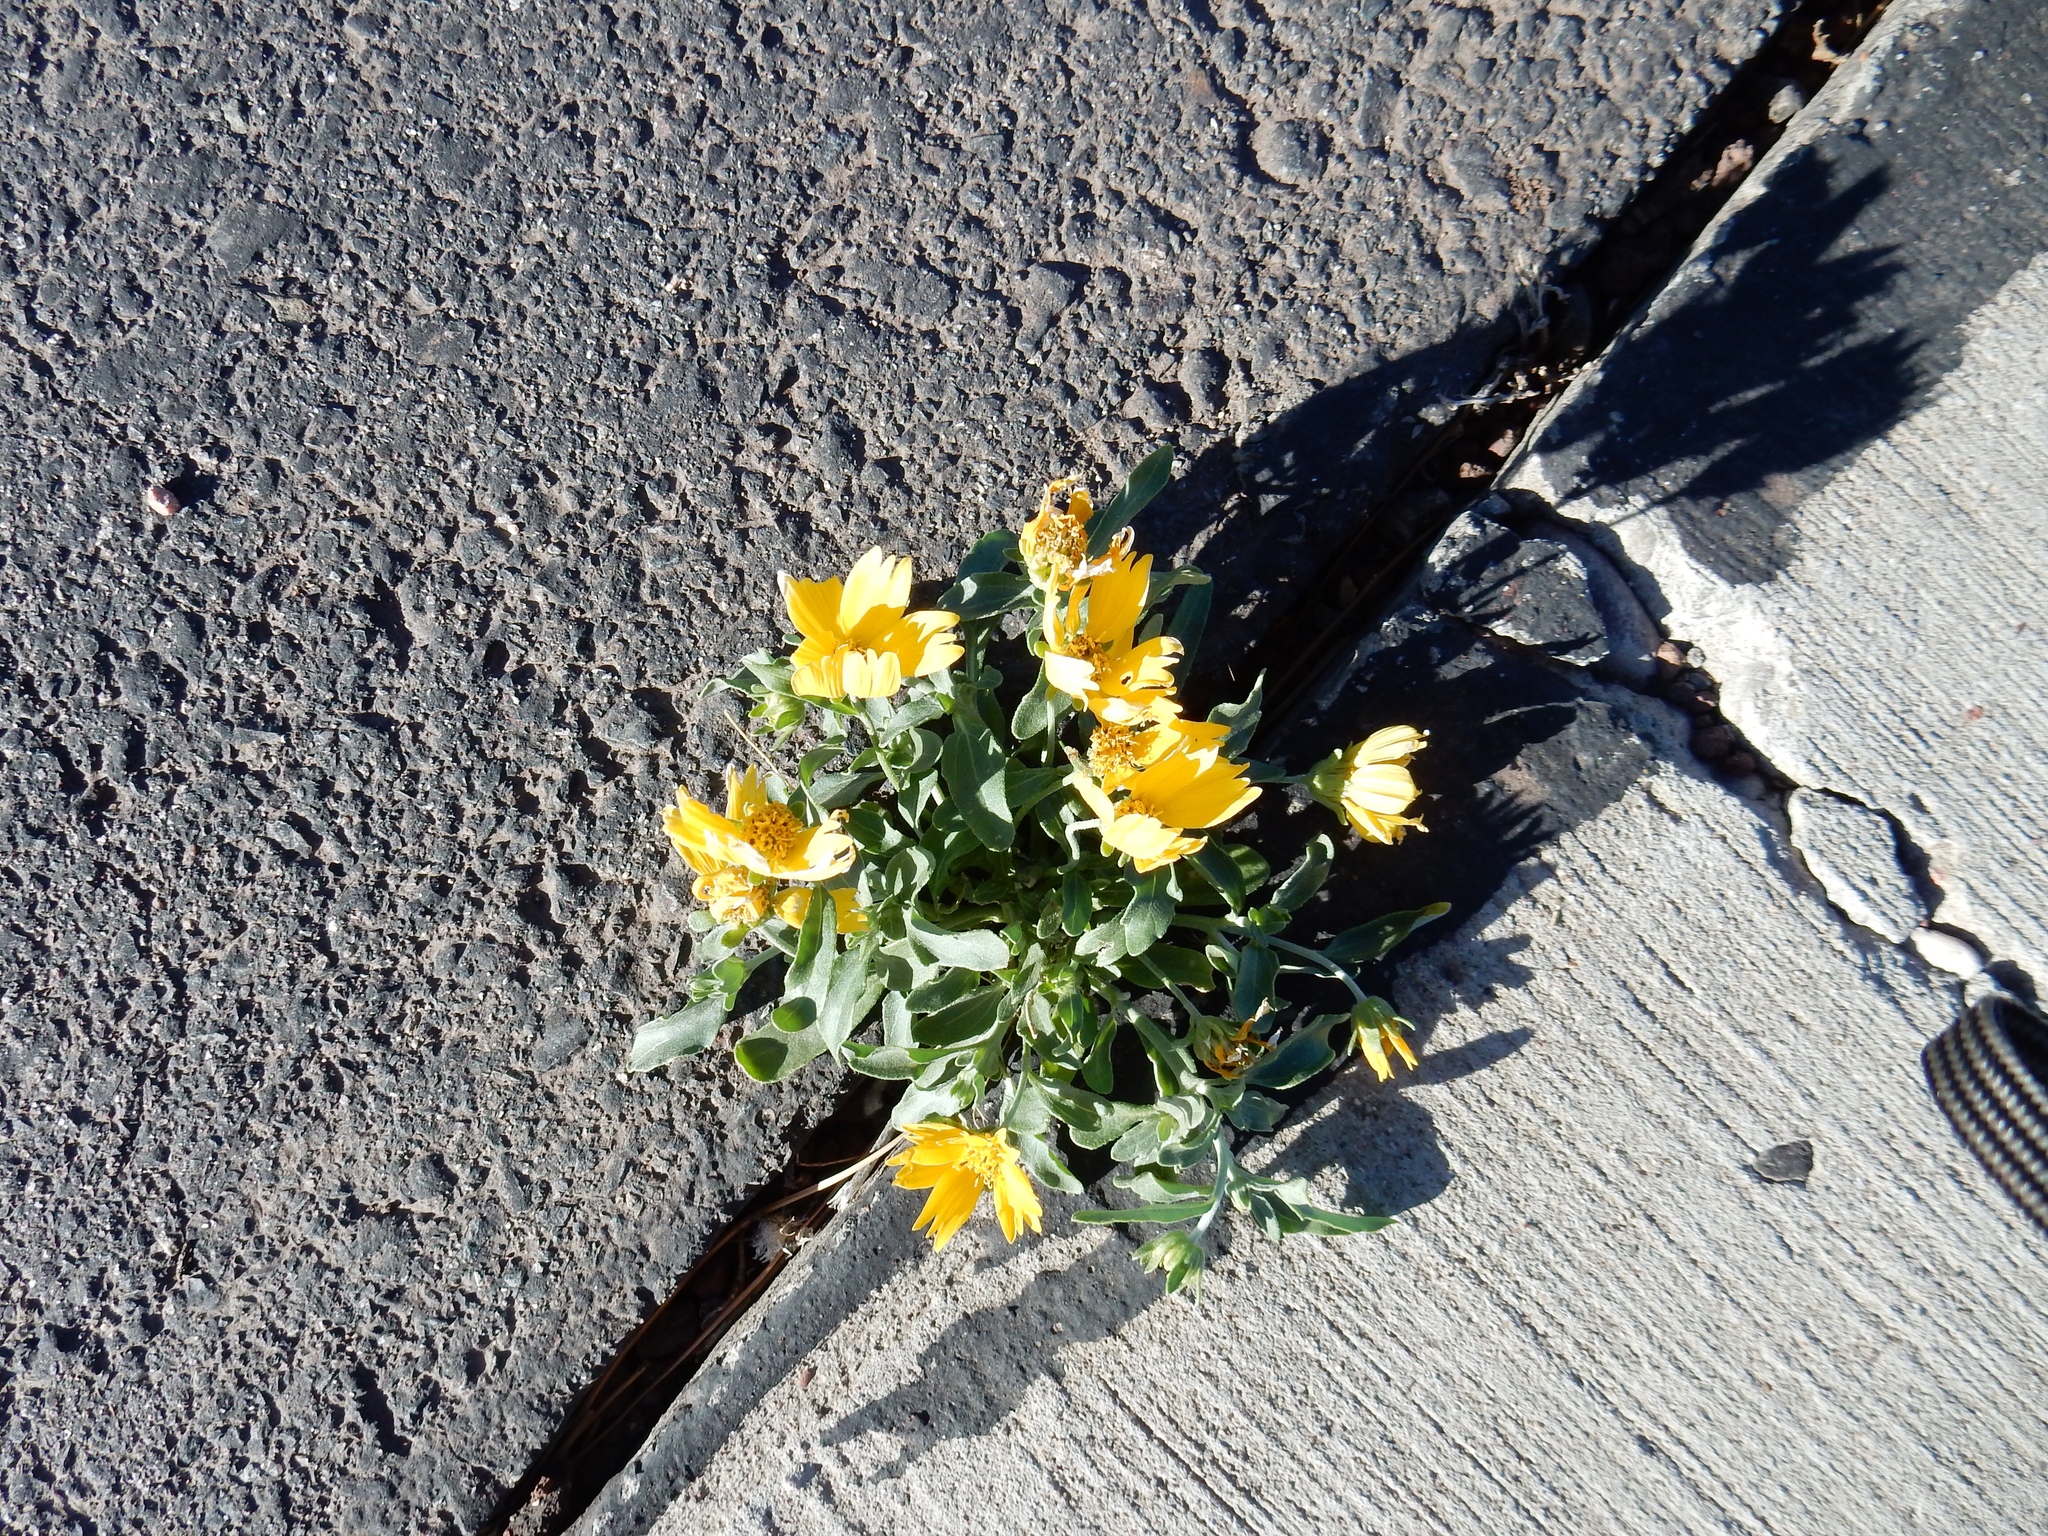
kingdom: Plantae
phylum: Tracheophyta
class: Magnoliopsida
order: Asterales
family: Asteraceae
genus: Verbesina
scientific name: Verbesina encelioides
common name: Golden crownbeard
